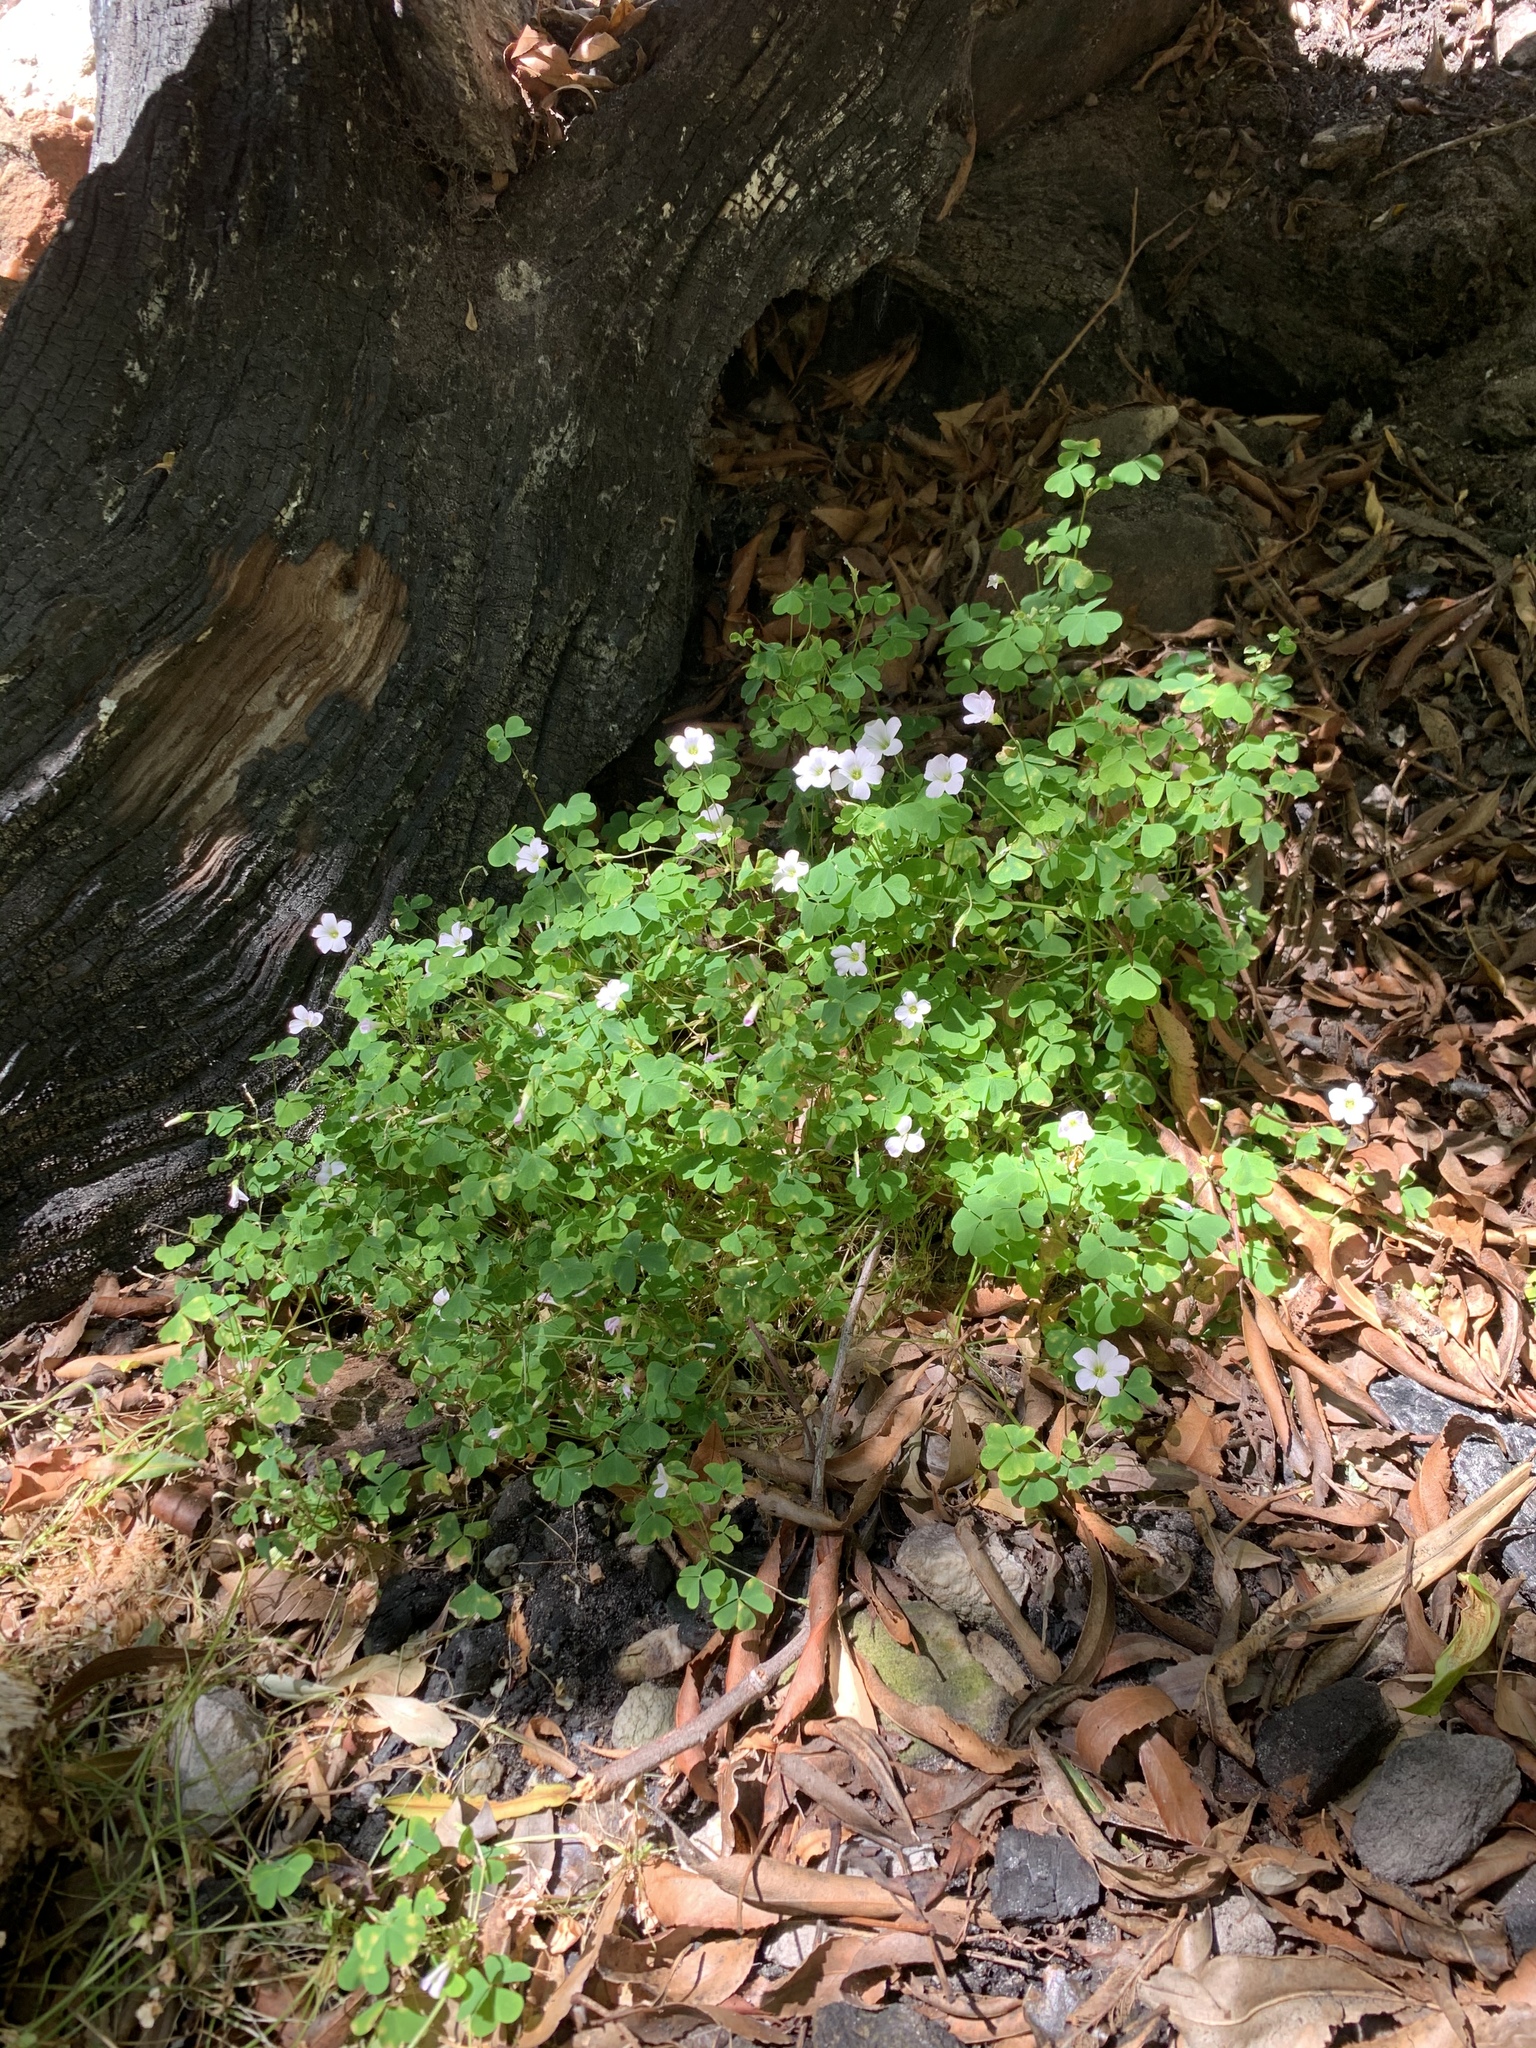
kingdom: Plantae
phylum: Tracheophyta
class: Magnoliopsida
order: Oxalidales
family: Oxalidaceae
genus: Oxalis
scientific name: Oxalis incarnata
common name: Pale pink-sorrel
